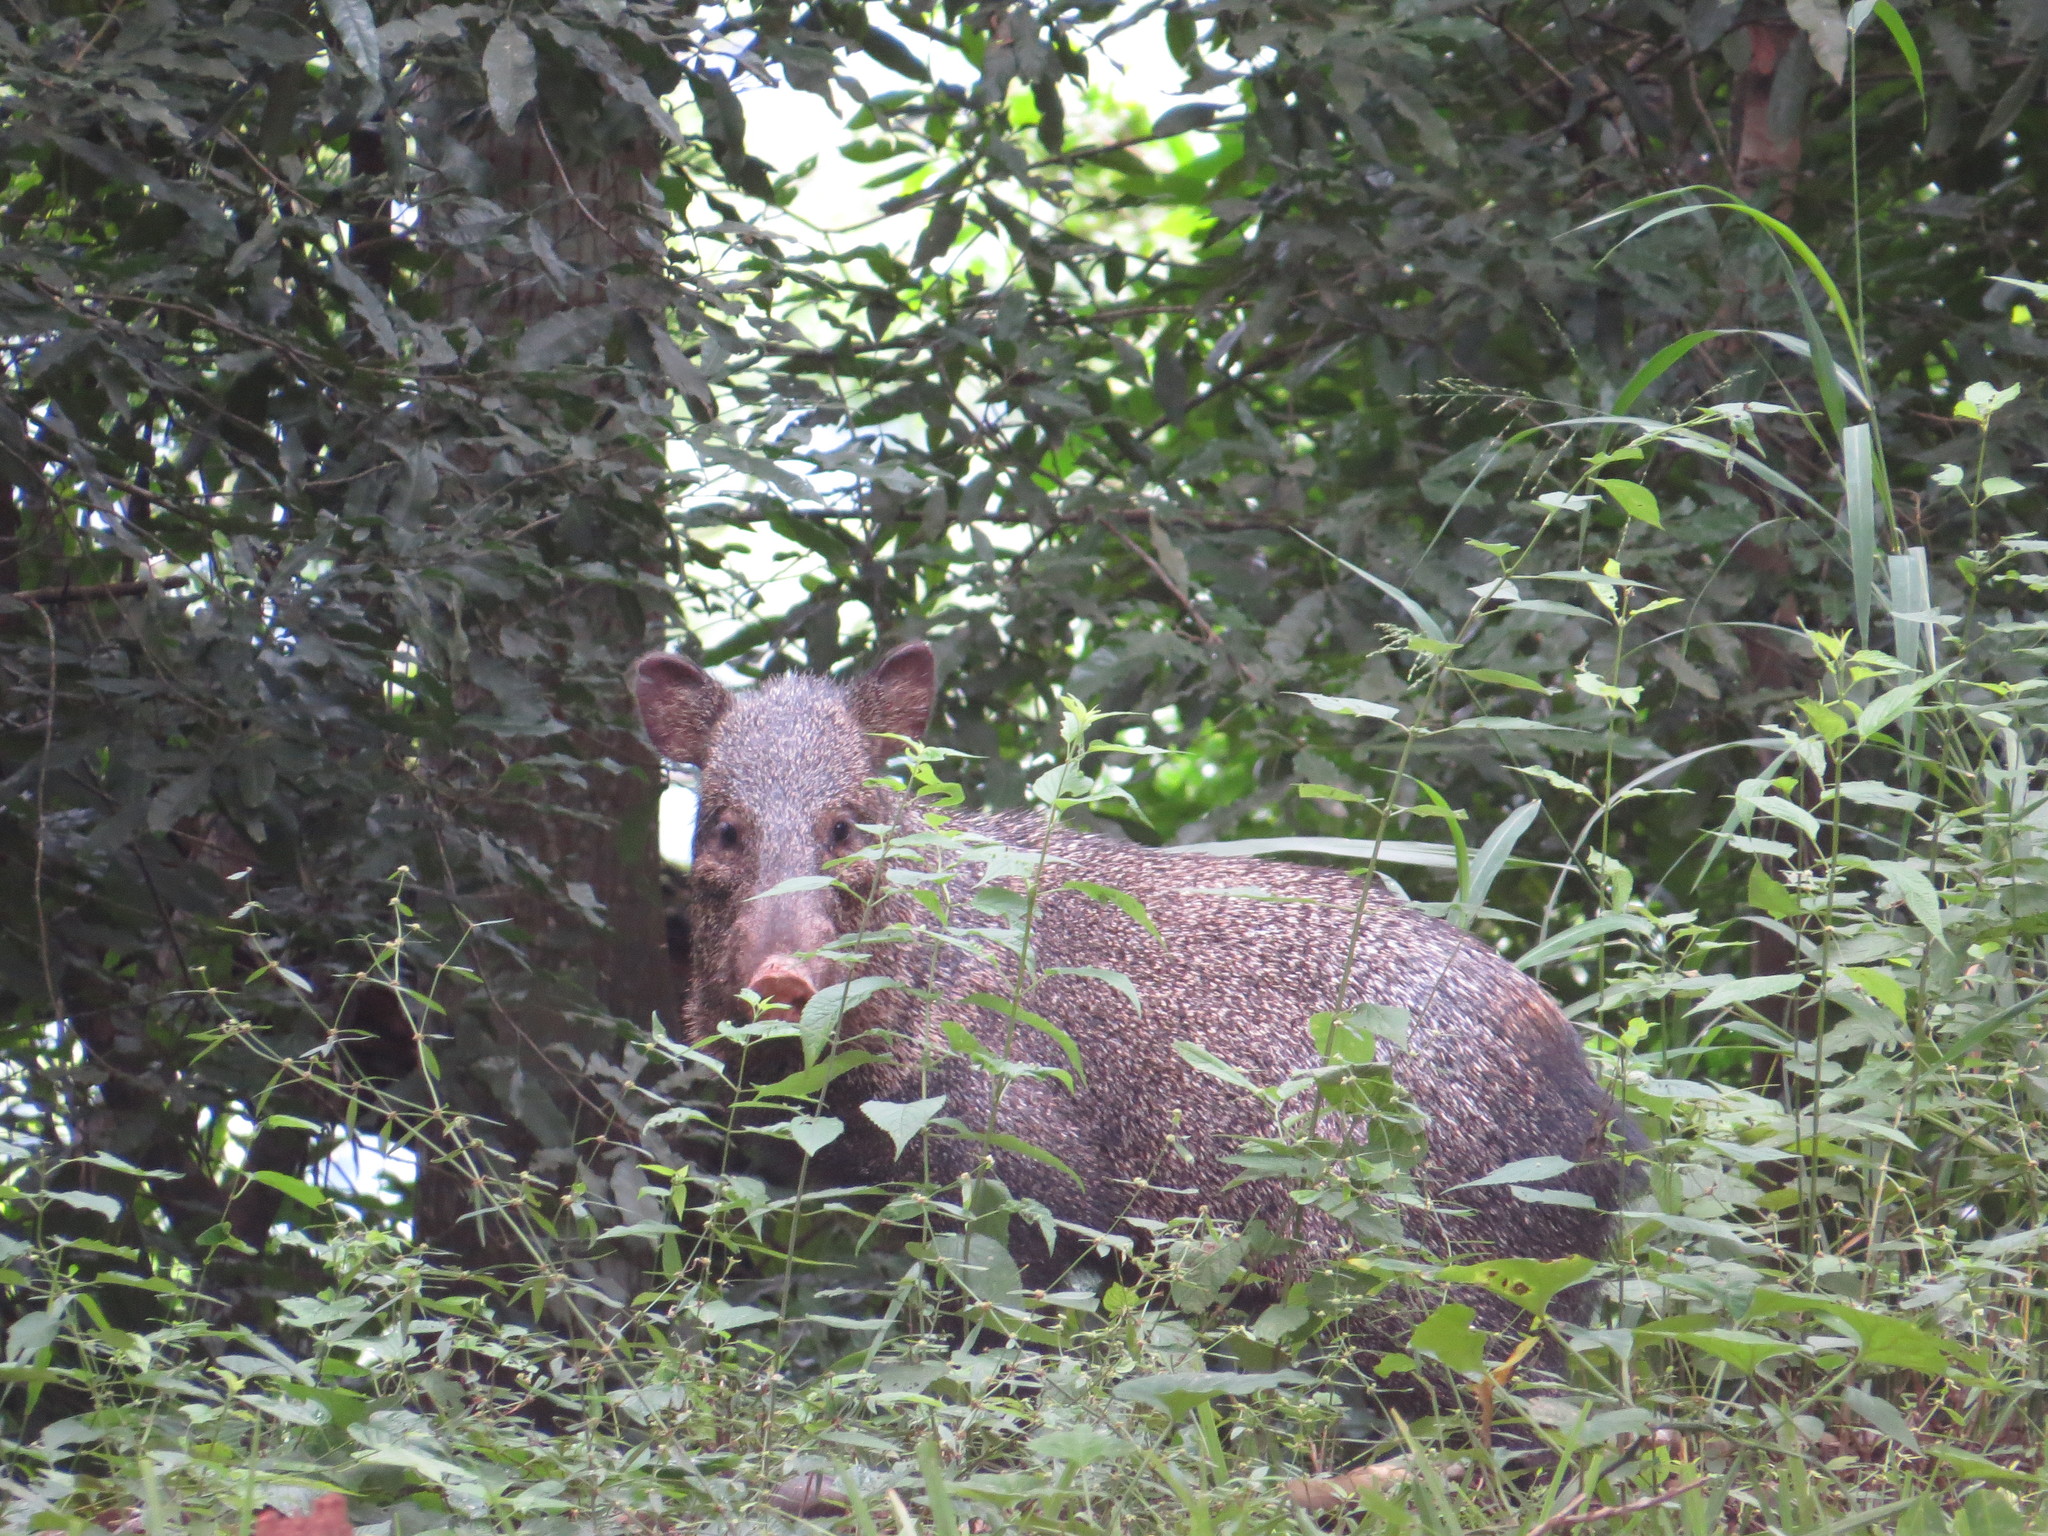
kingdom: Animalia
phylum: Chordata
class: Mammalia
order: Artiodactyla
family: Tayassuidae
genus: Pecari
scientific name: Pecari tajacu
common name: Collared peccary
